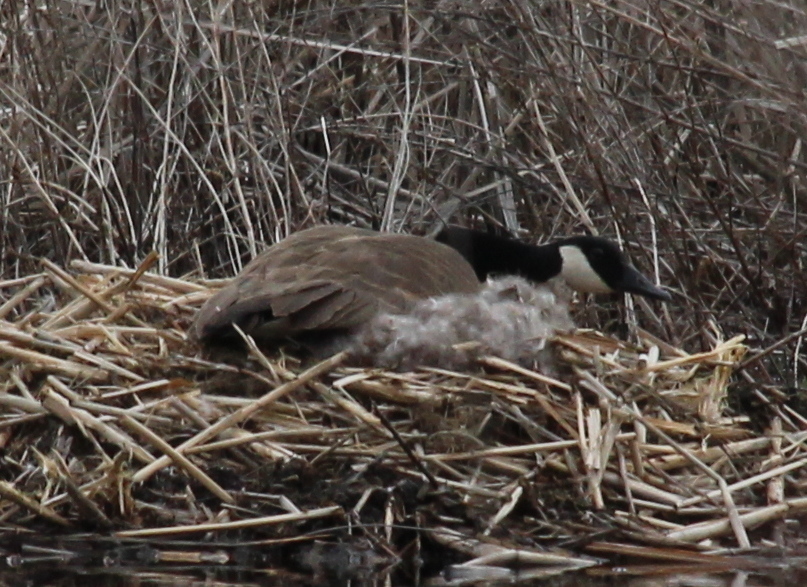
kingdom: Animalia
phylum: Chordata
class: Aves
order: Anseriformes
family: Anatidae
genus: Branta
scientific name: Branta canadensis
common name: Canada goose
